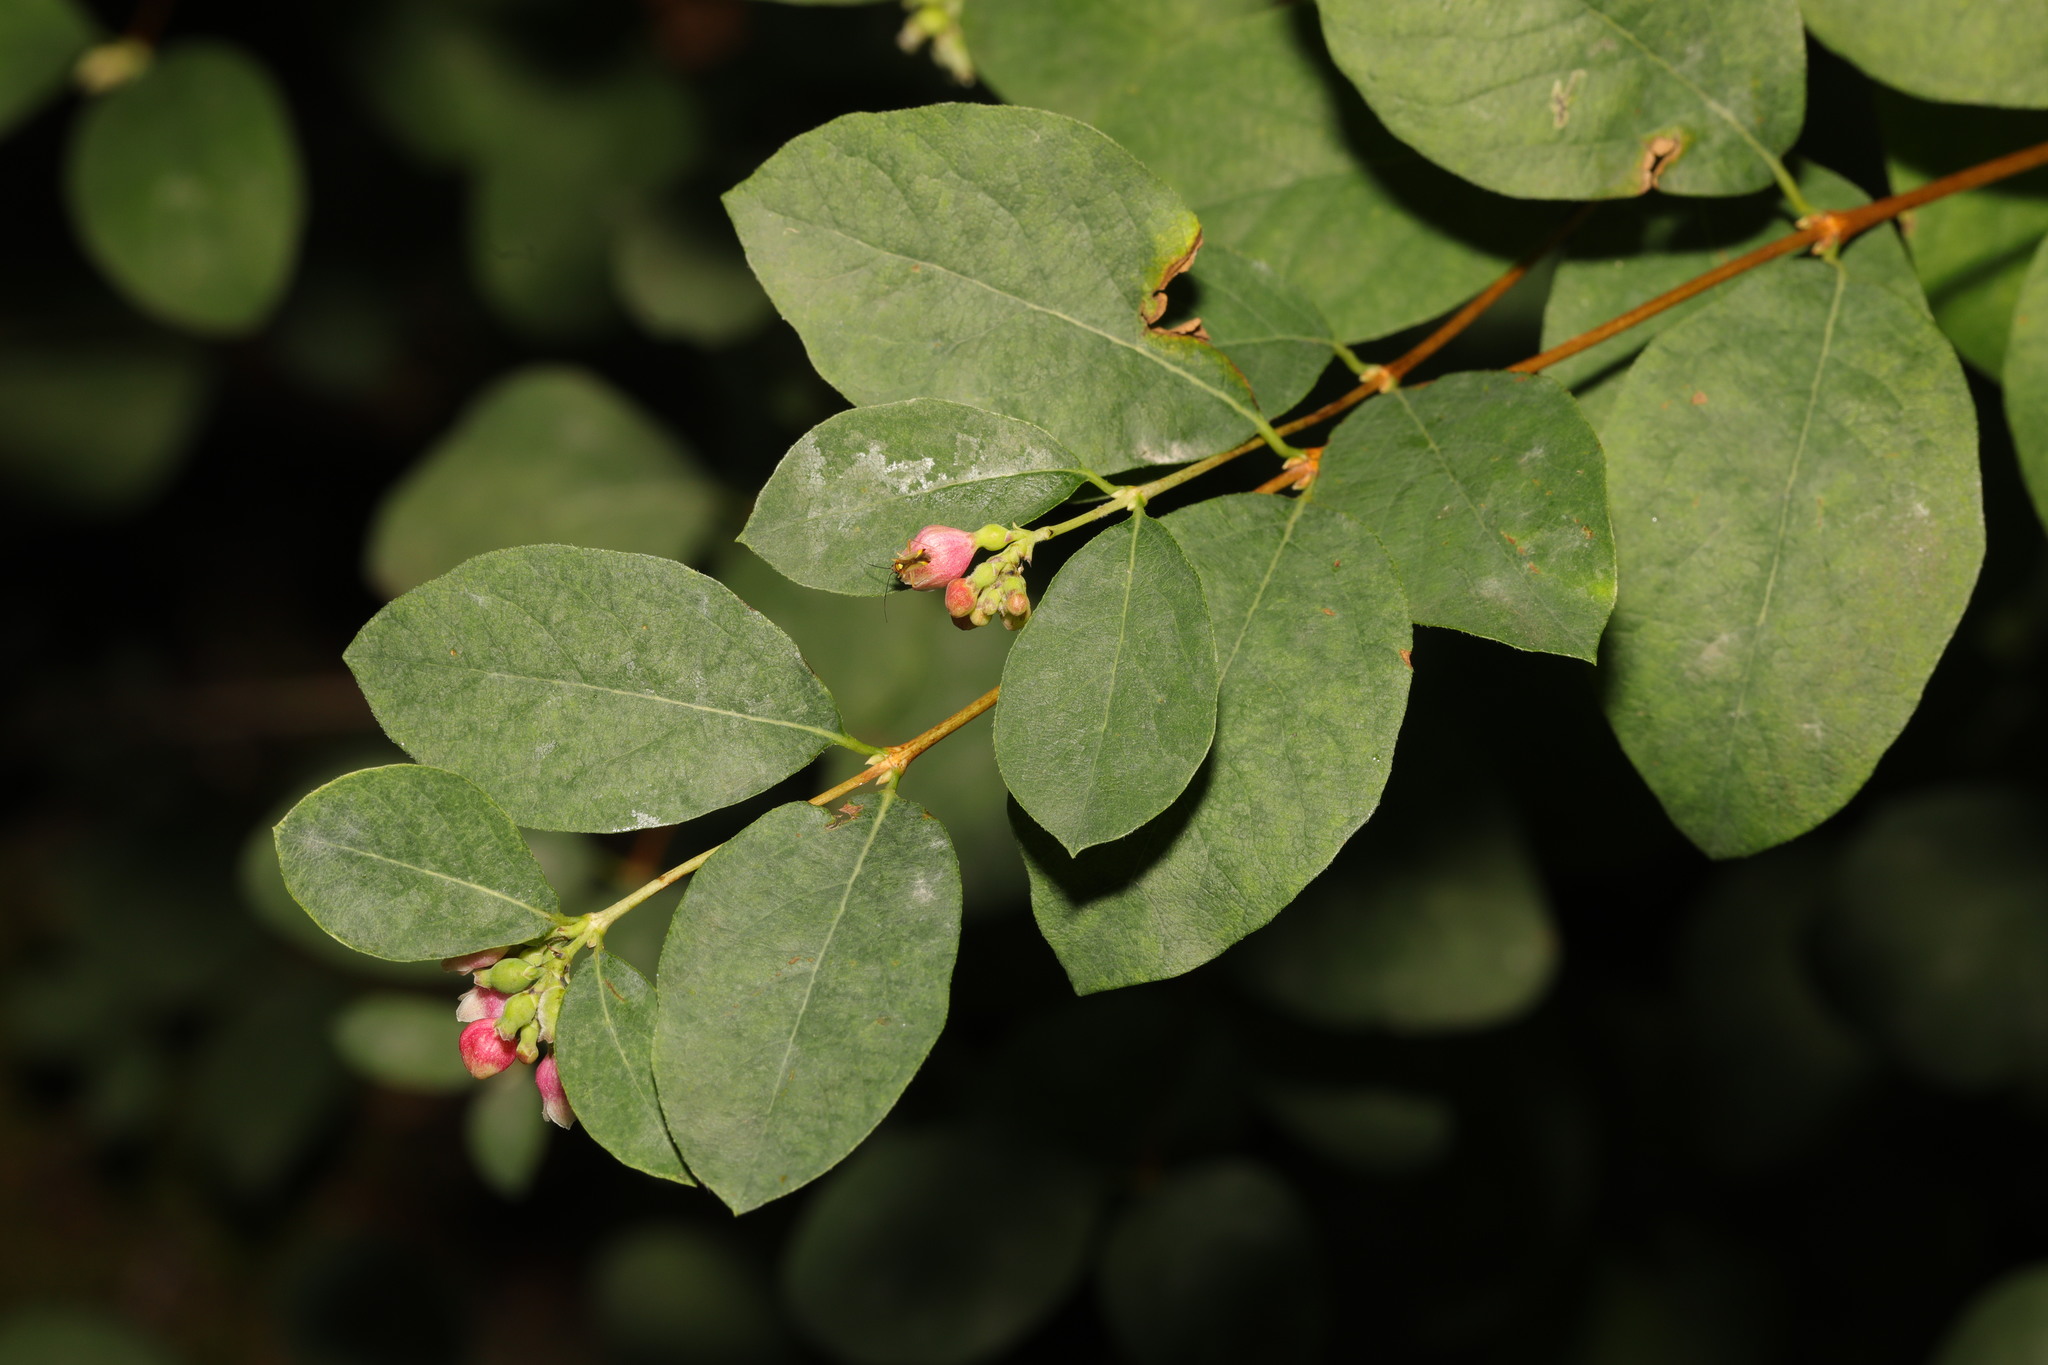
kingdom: Plantae
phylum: Tracheophyta
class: Magnoliopsida
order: Dipsacales
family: Caprifoliaceae
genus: Symphoricarpos
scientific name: Symphoricarpos albus
